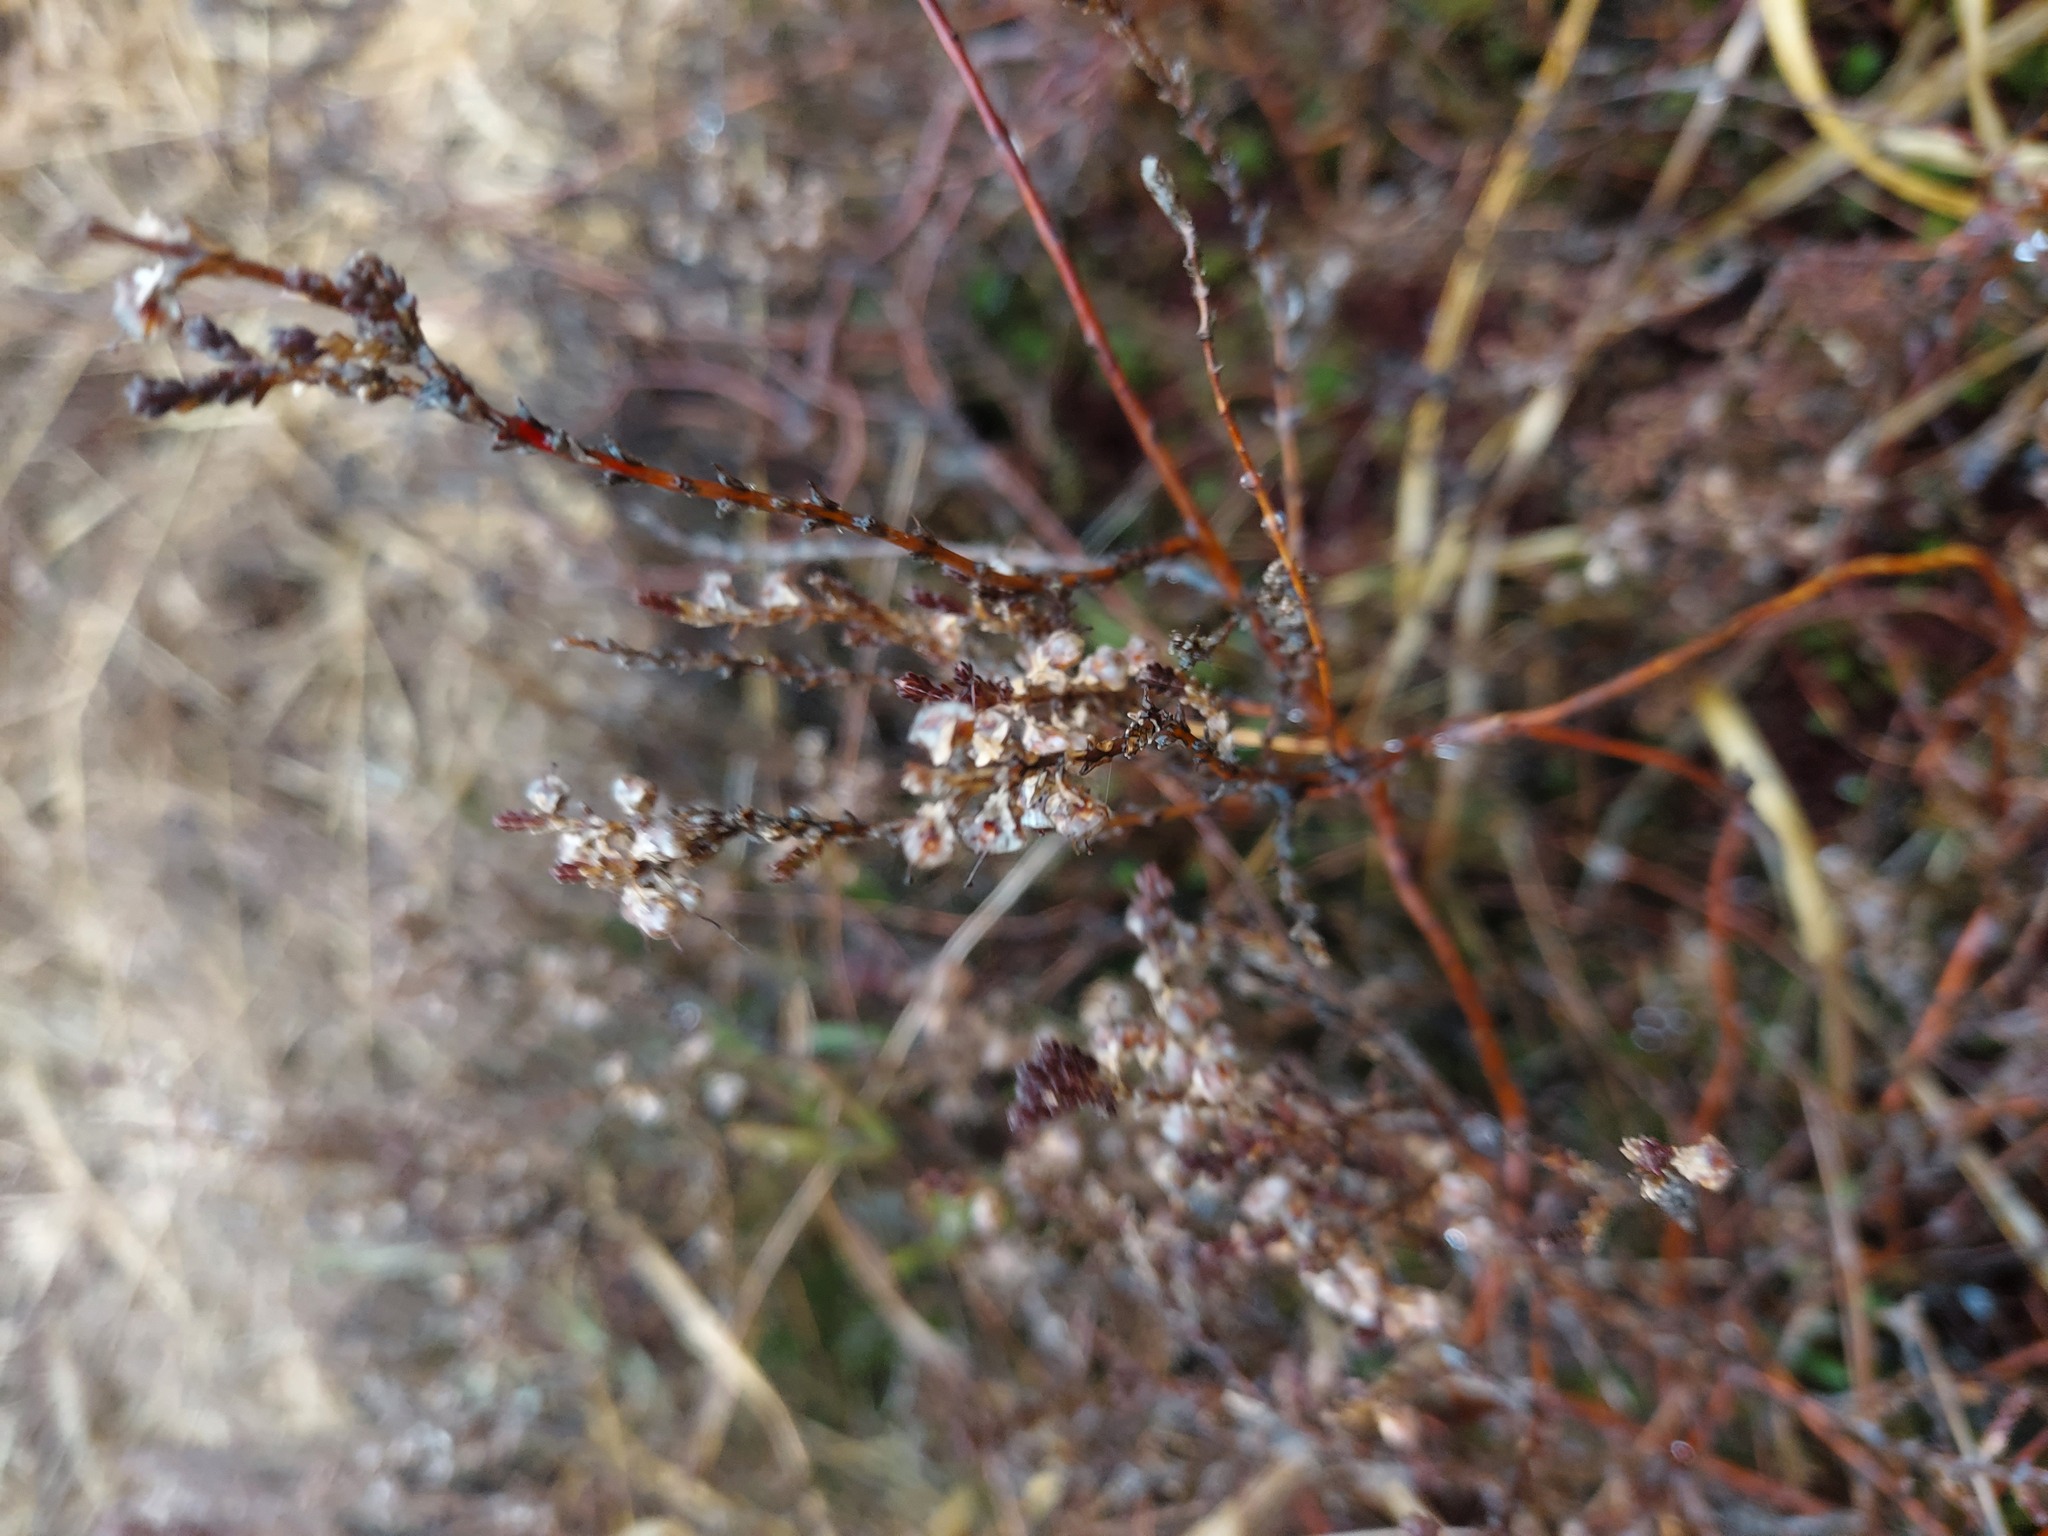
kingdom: Plantae
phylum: Tracheophyta
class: Magnoliopsida
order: Ericales
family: Ericaceae
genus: Calluna
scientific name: Calluna vulgaris
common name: Heather
